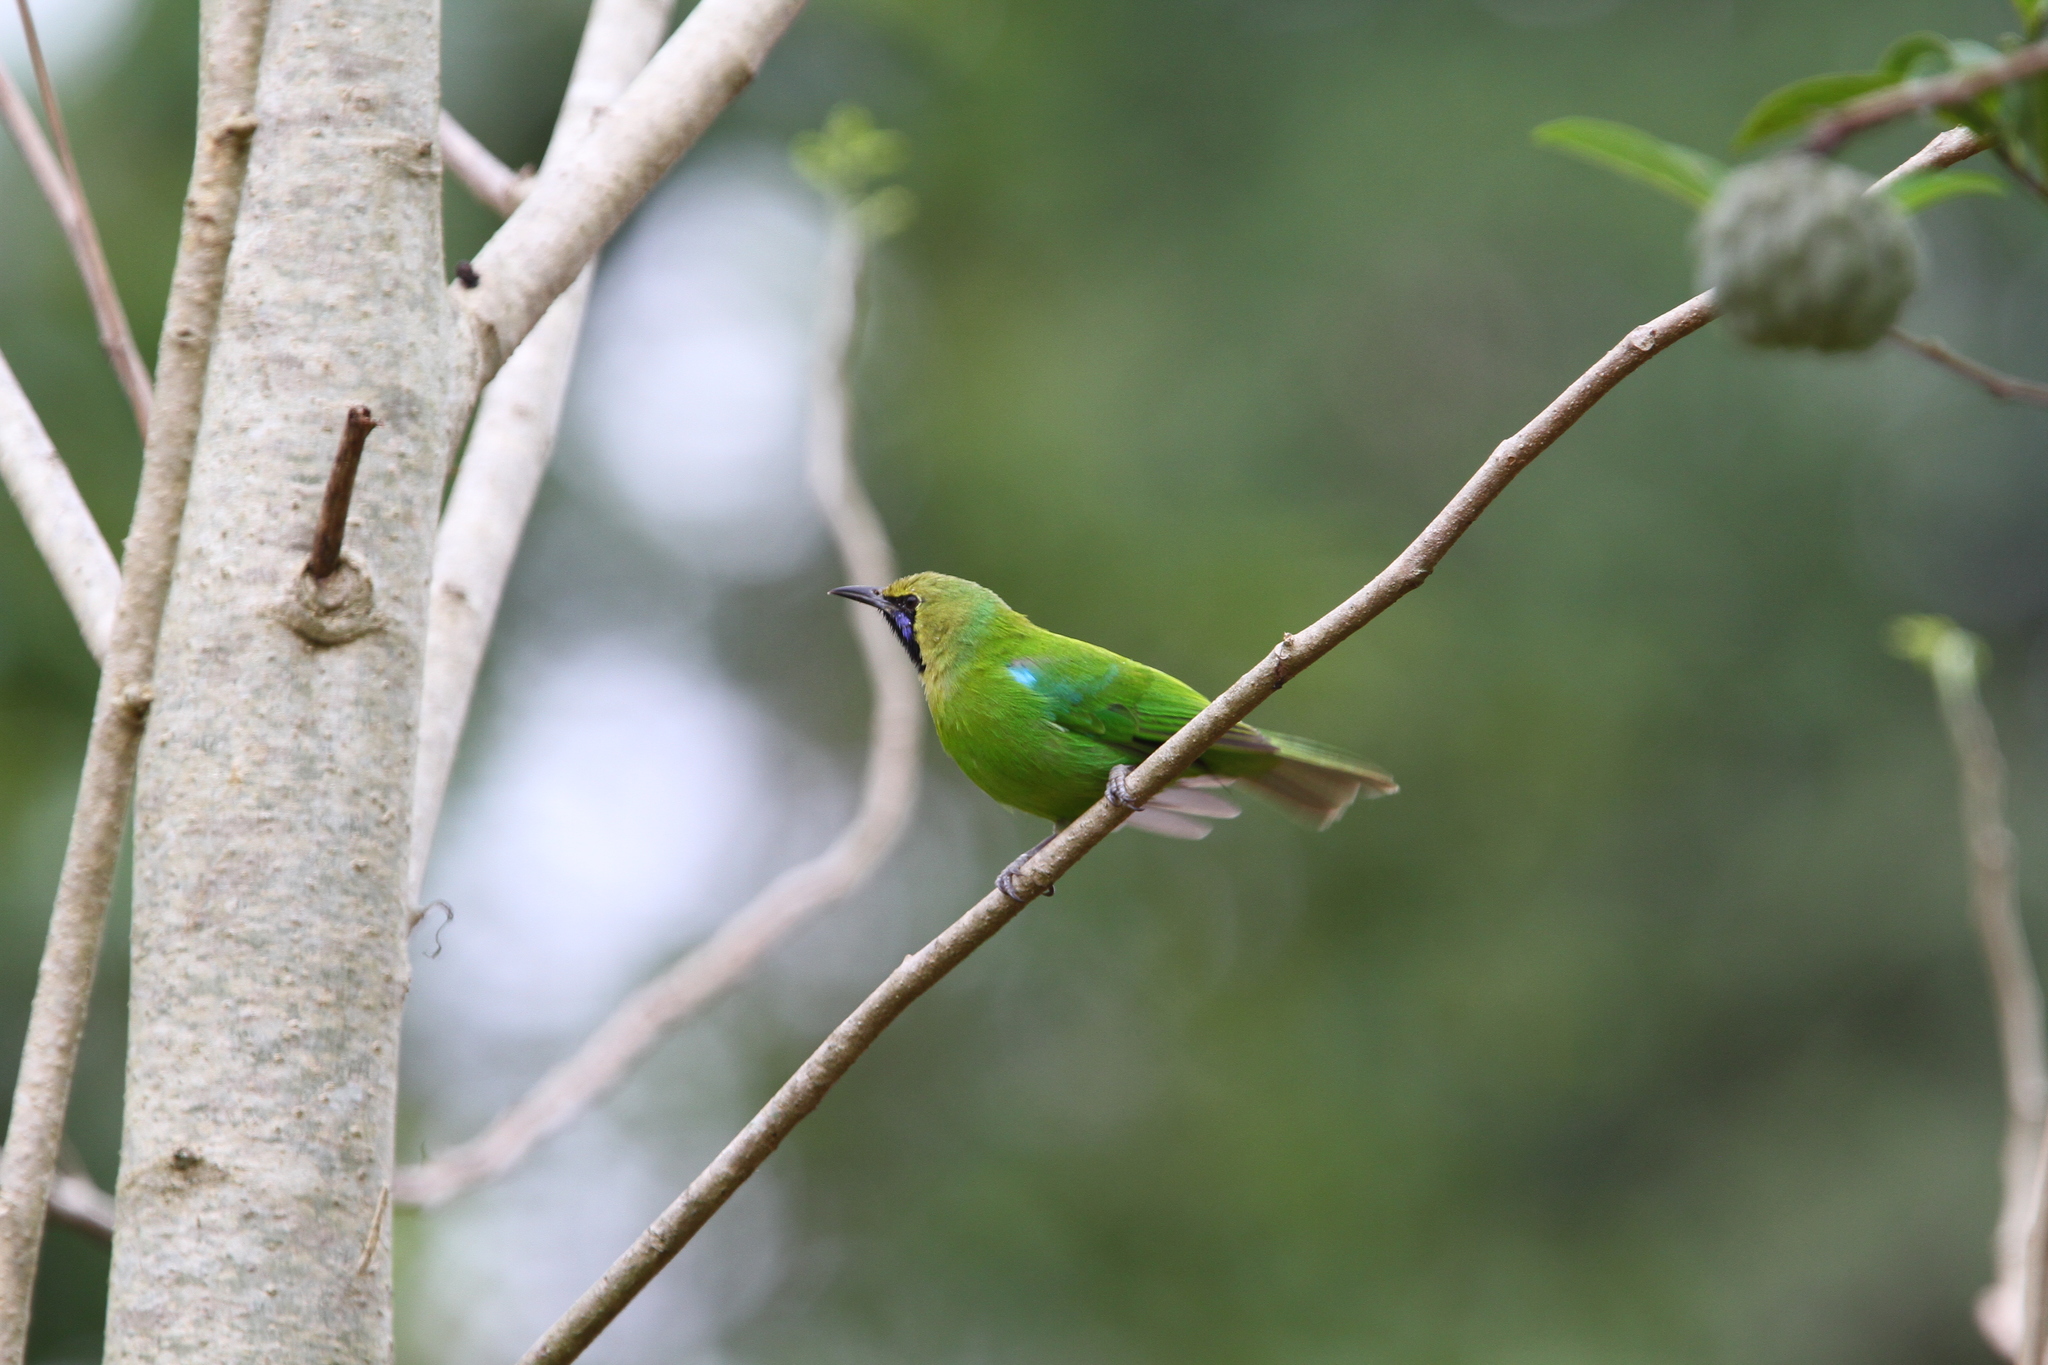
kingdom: Animalia
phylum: Chordata
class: Aves
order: Passeriformes
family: Chloropseidae
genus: Chloropsis
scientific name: Chloropsis jerdoni
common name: Jerdon's leafbird
